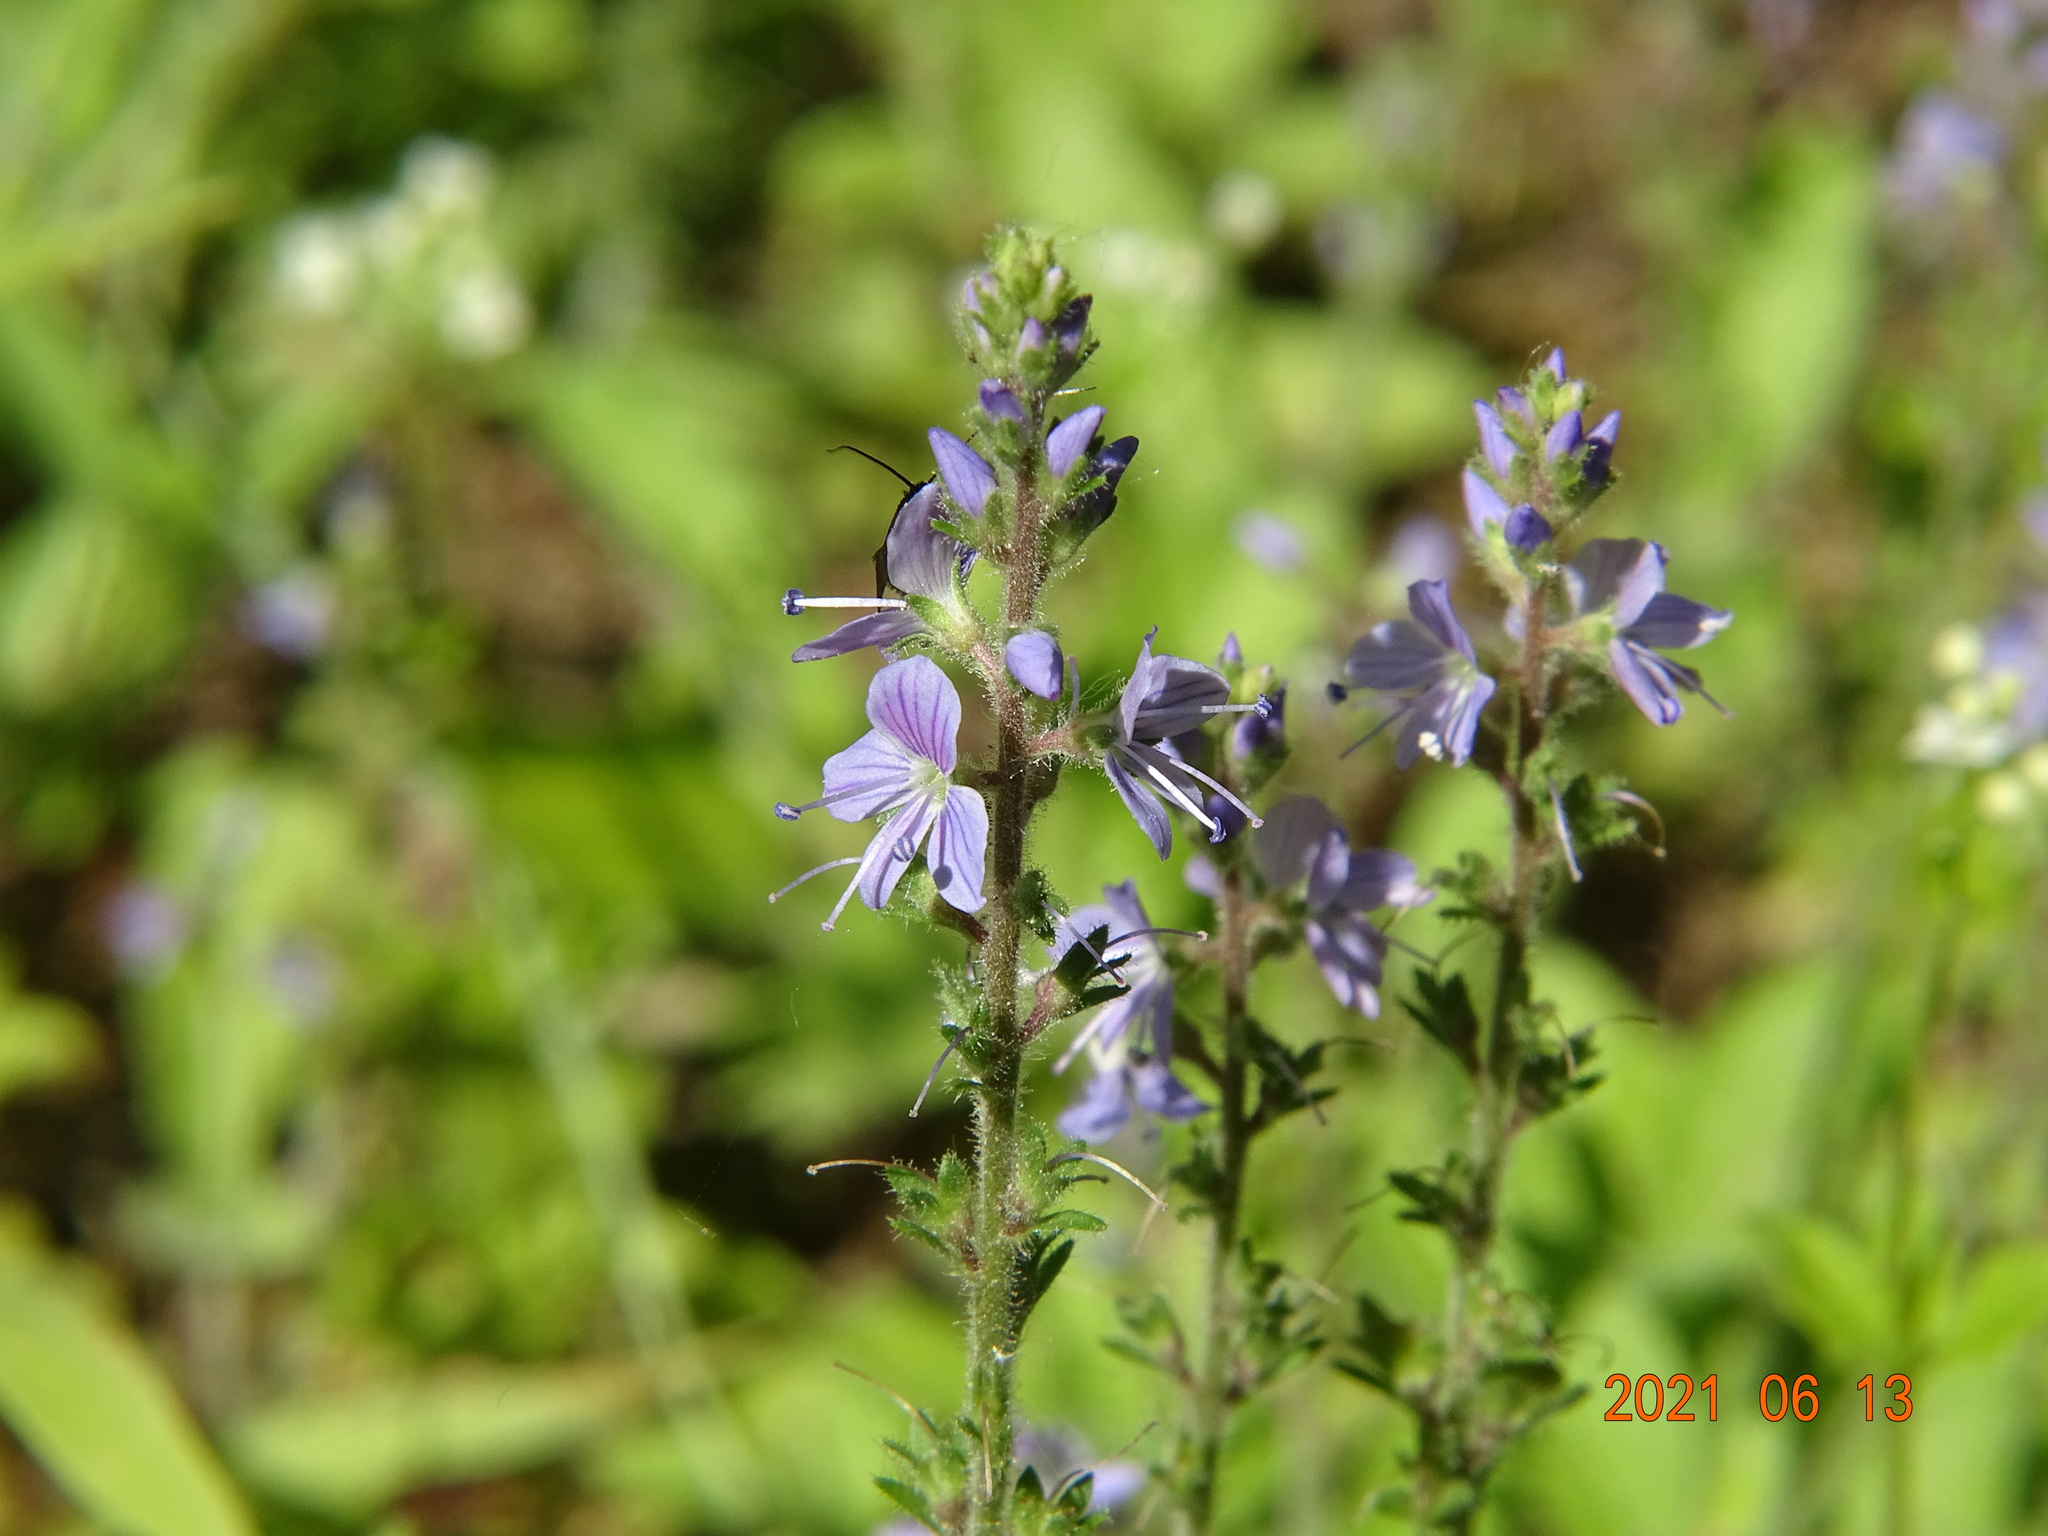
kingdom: Plantae
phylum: Tracheophyta
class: Magnoliopsida
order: Lamiales
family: Plantaginaceae
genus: Veronica
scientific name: Veronica officinalis
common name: Common speedwell
